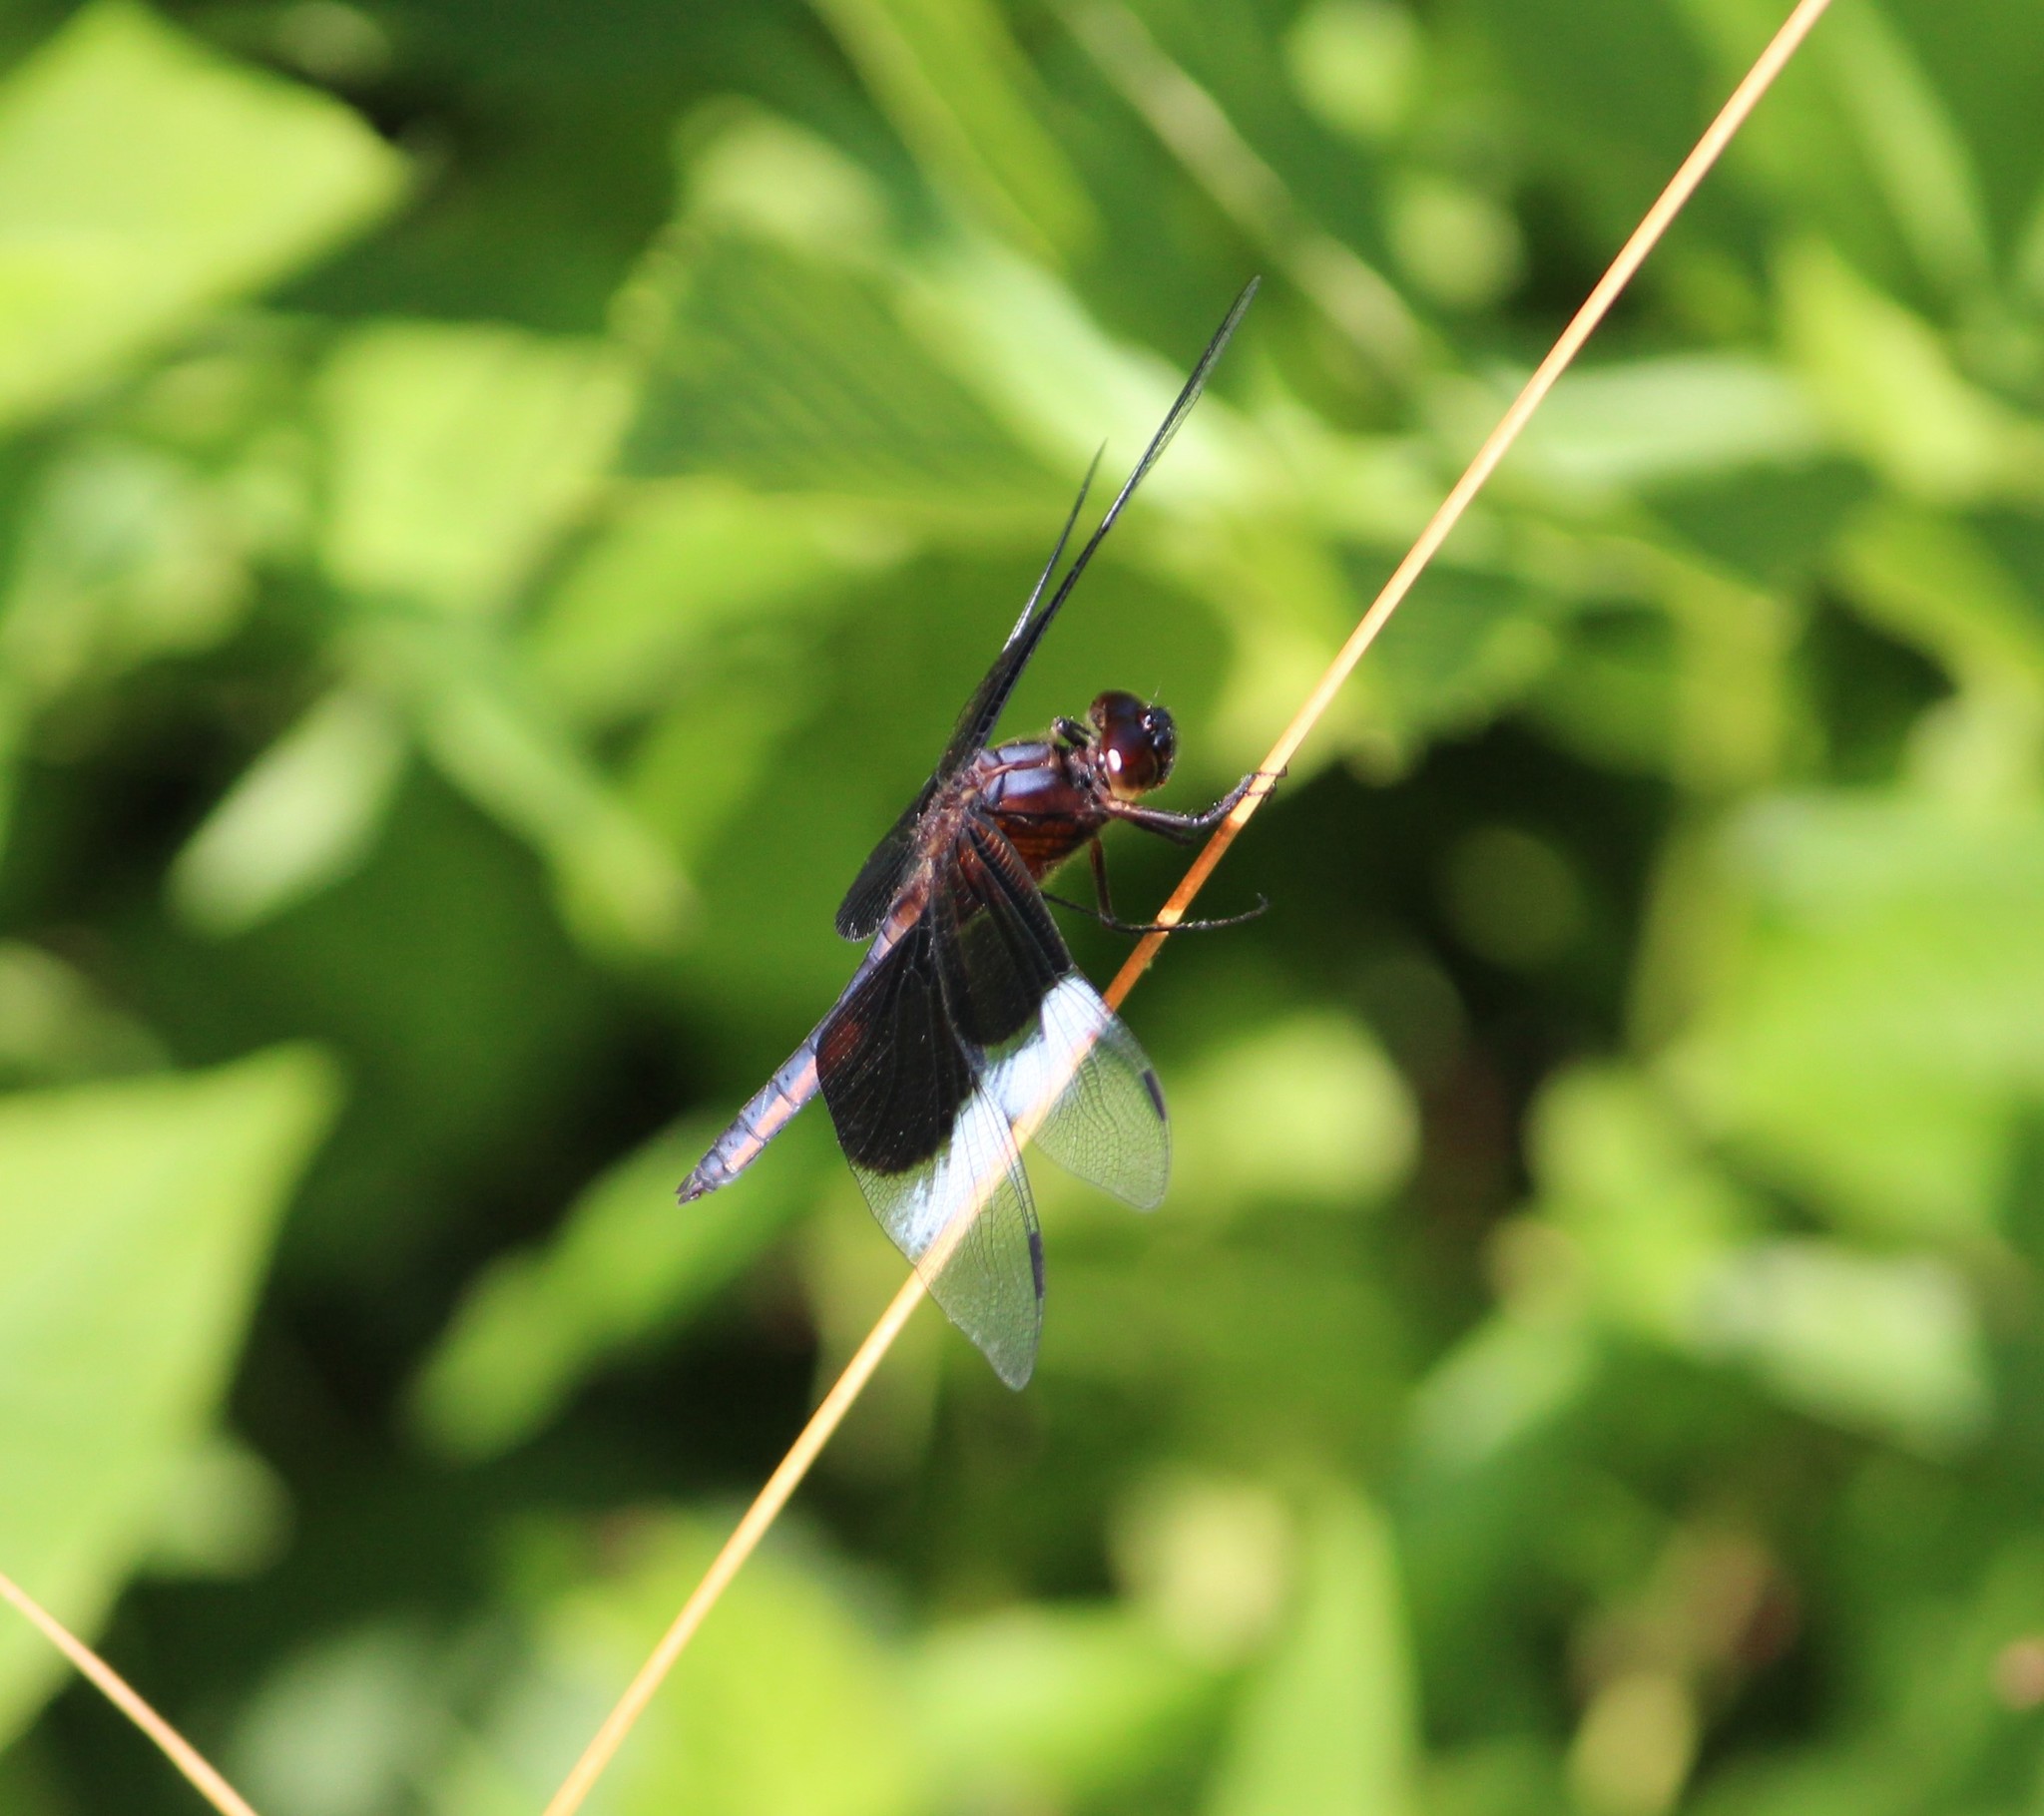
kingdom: Animalia
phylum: Arthropoda
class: Insecta
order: Odonata
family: Libellulidae
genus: Libellula
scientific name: Libellula luctuosa
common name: Widow skimmer
